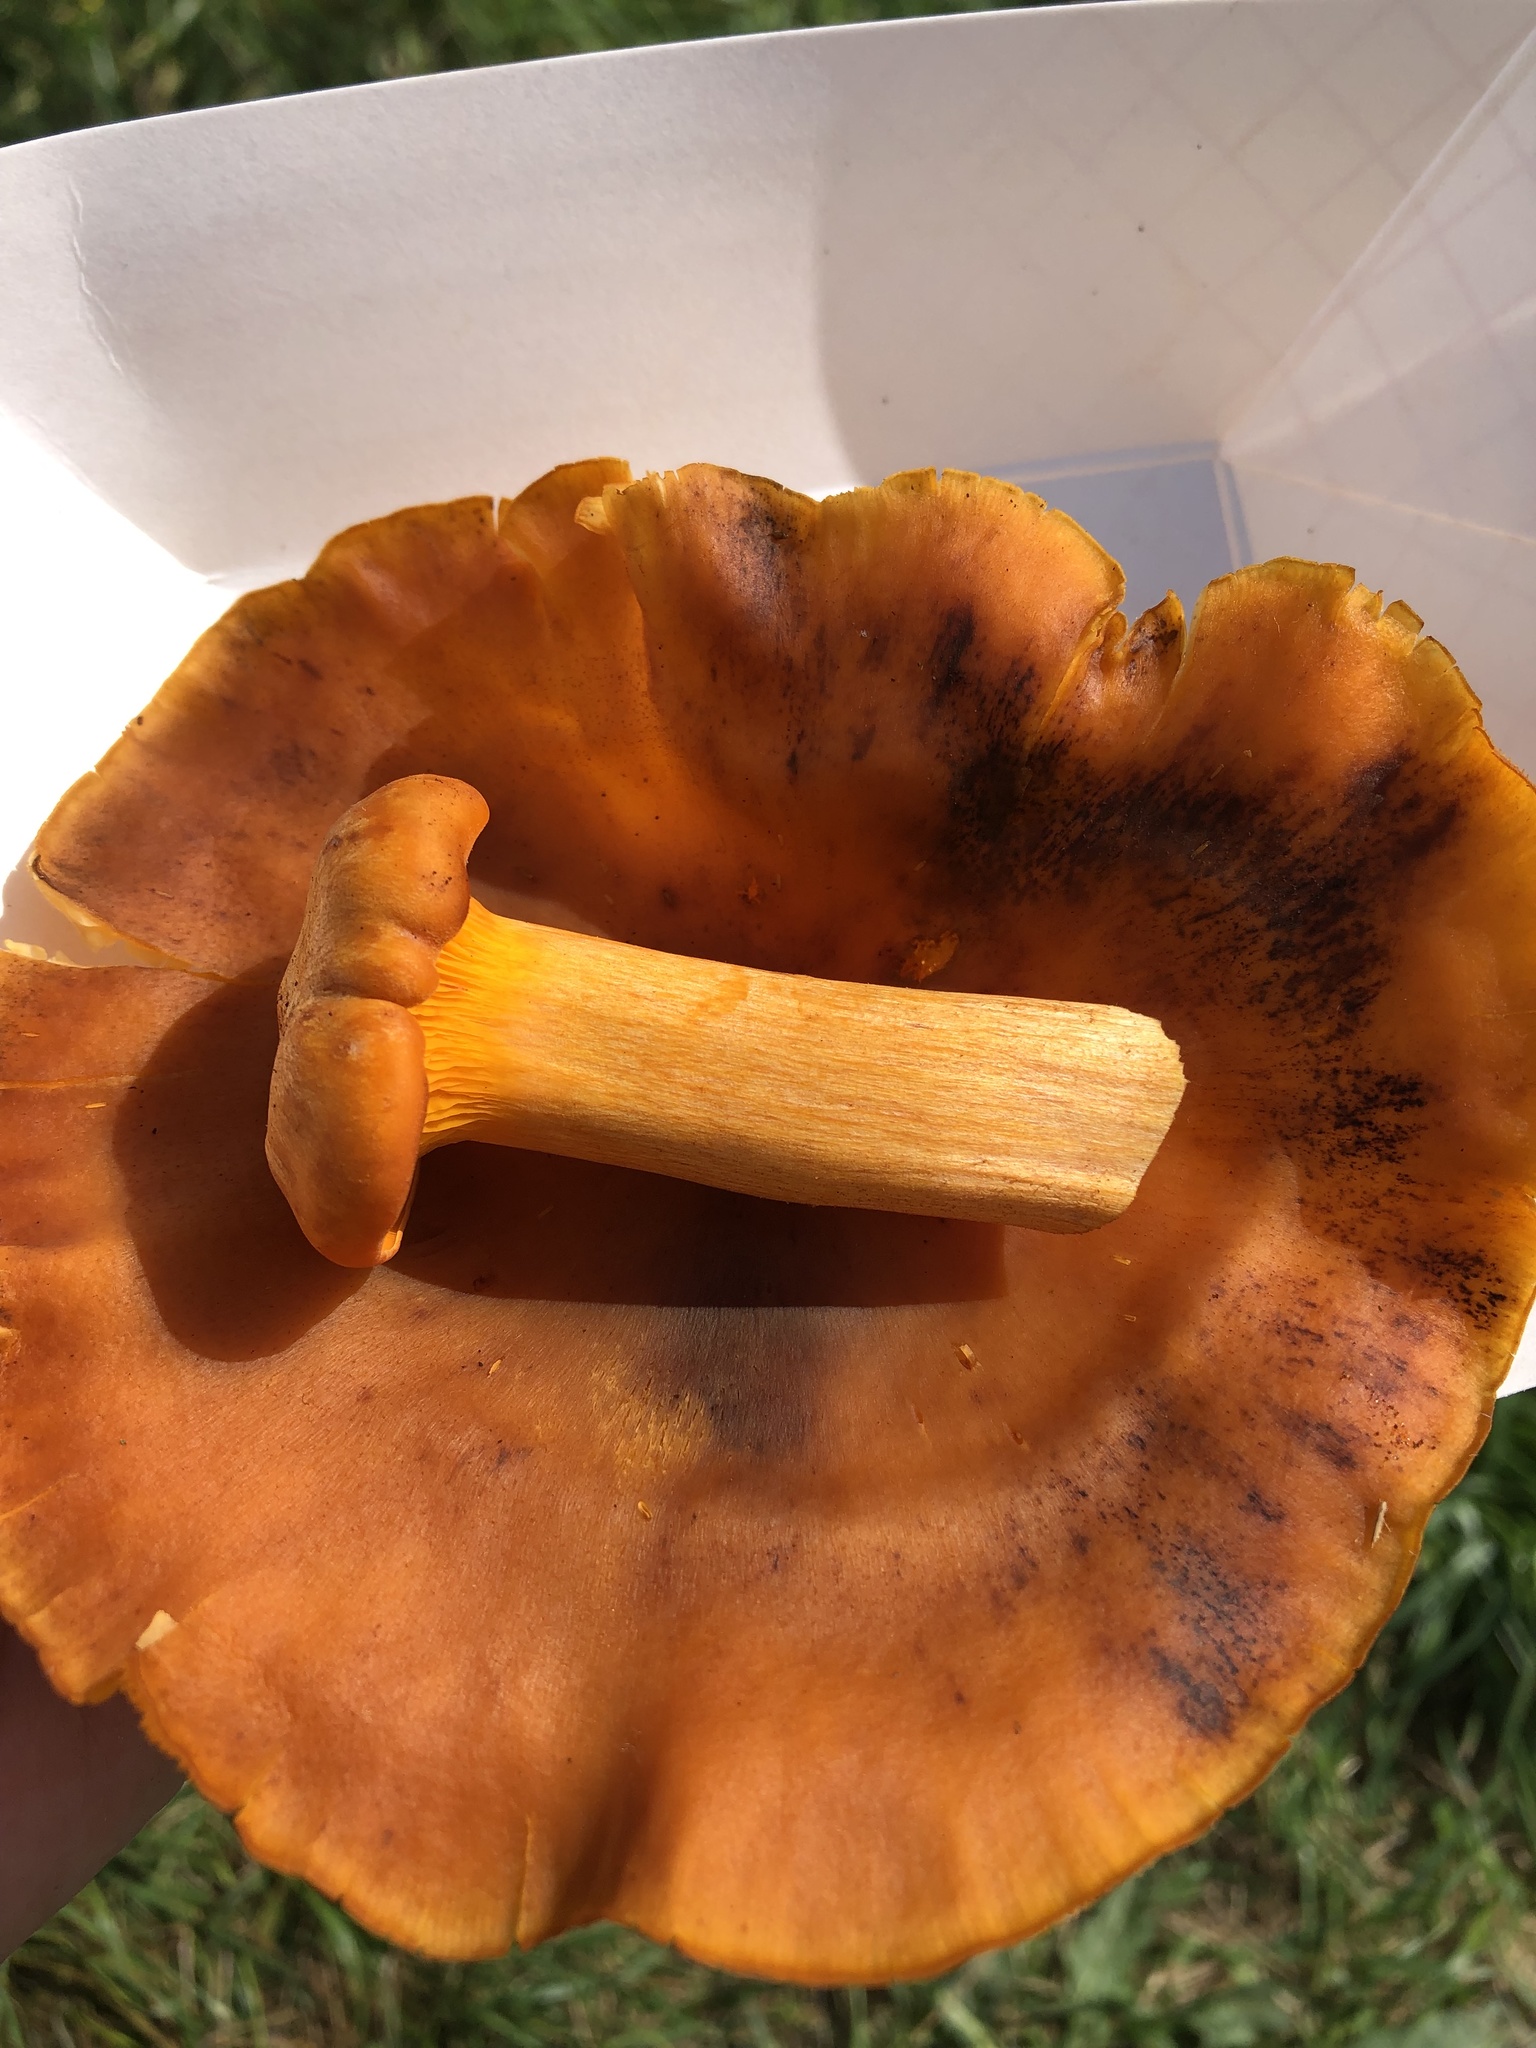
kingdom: Fungi
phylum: Basidiomycota
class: Agaricomycetes
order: Agaricales
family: Omphalotaceae
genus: Omphalotus
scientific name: Omphalotus illudens
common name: Jack o lantern
